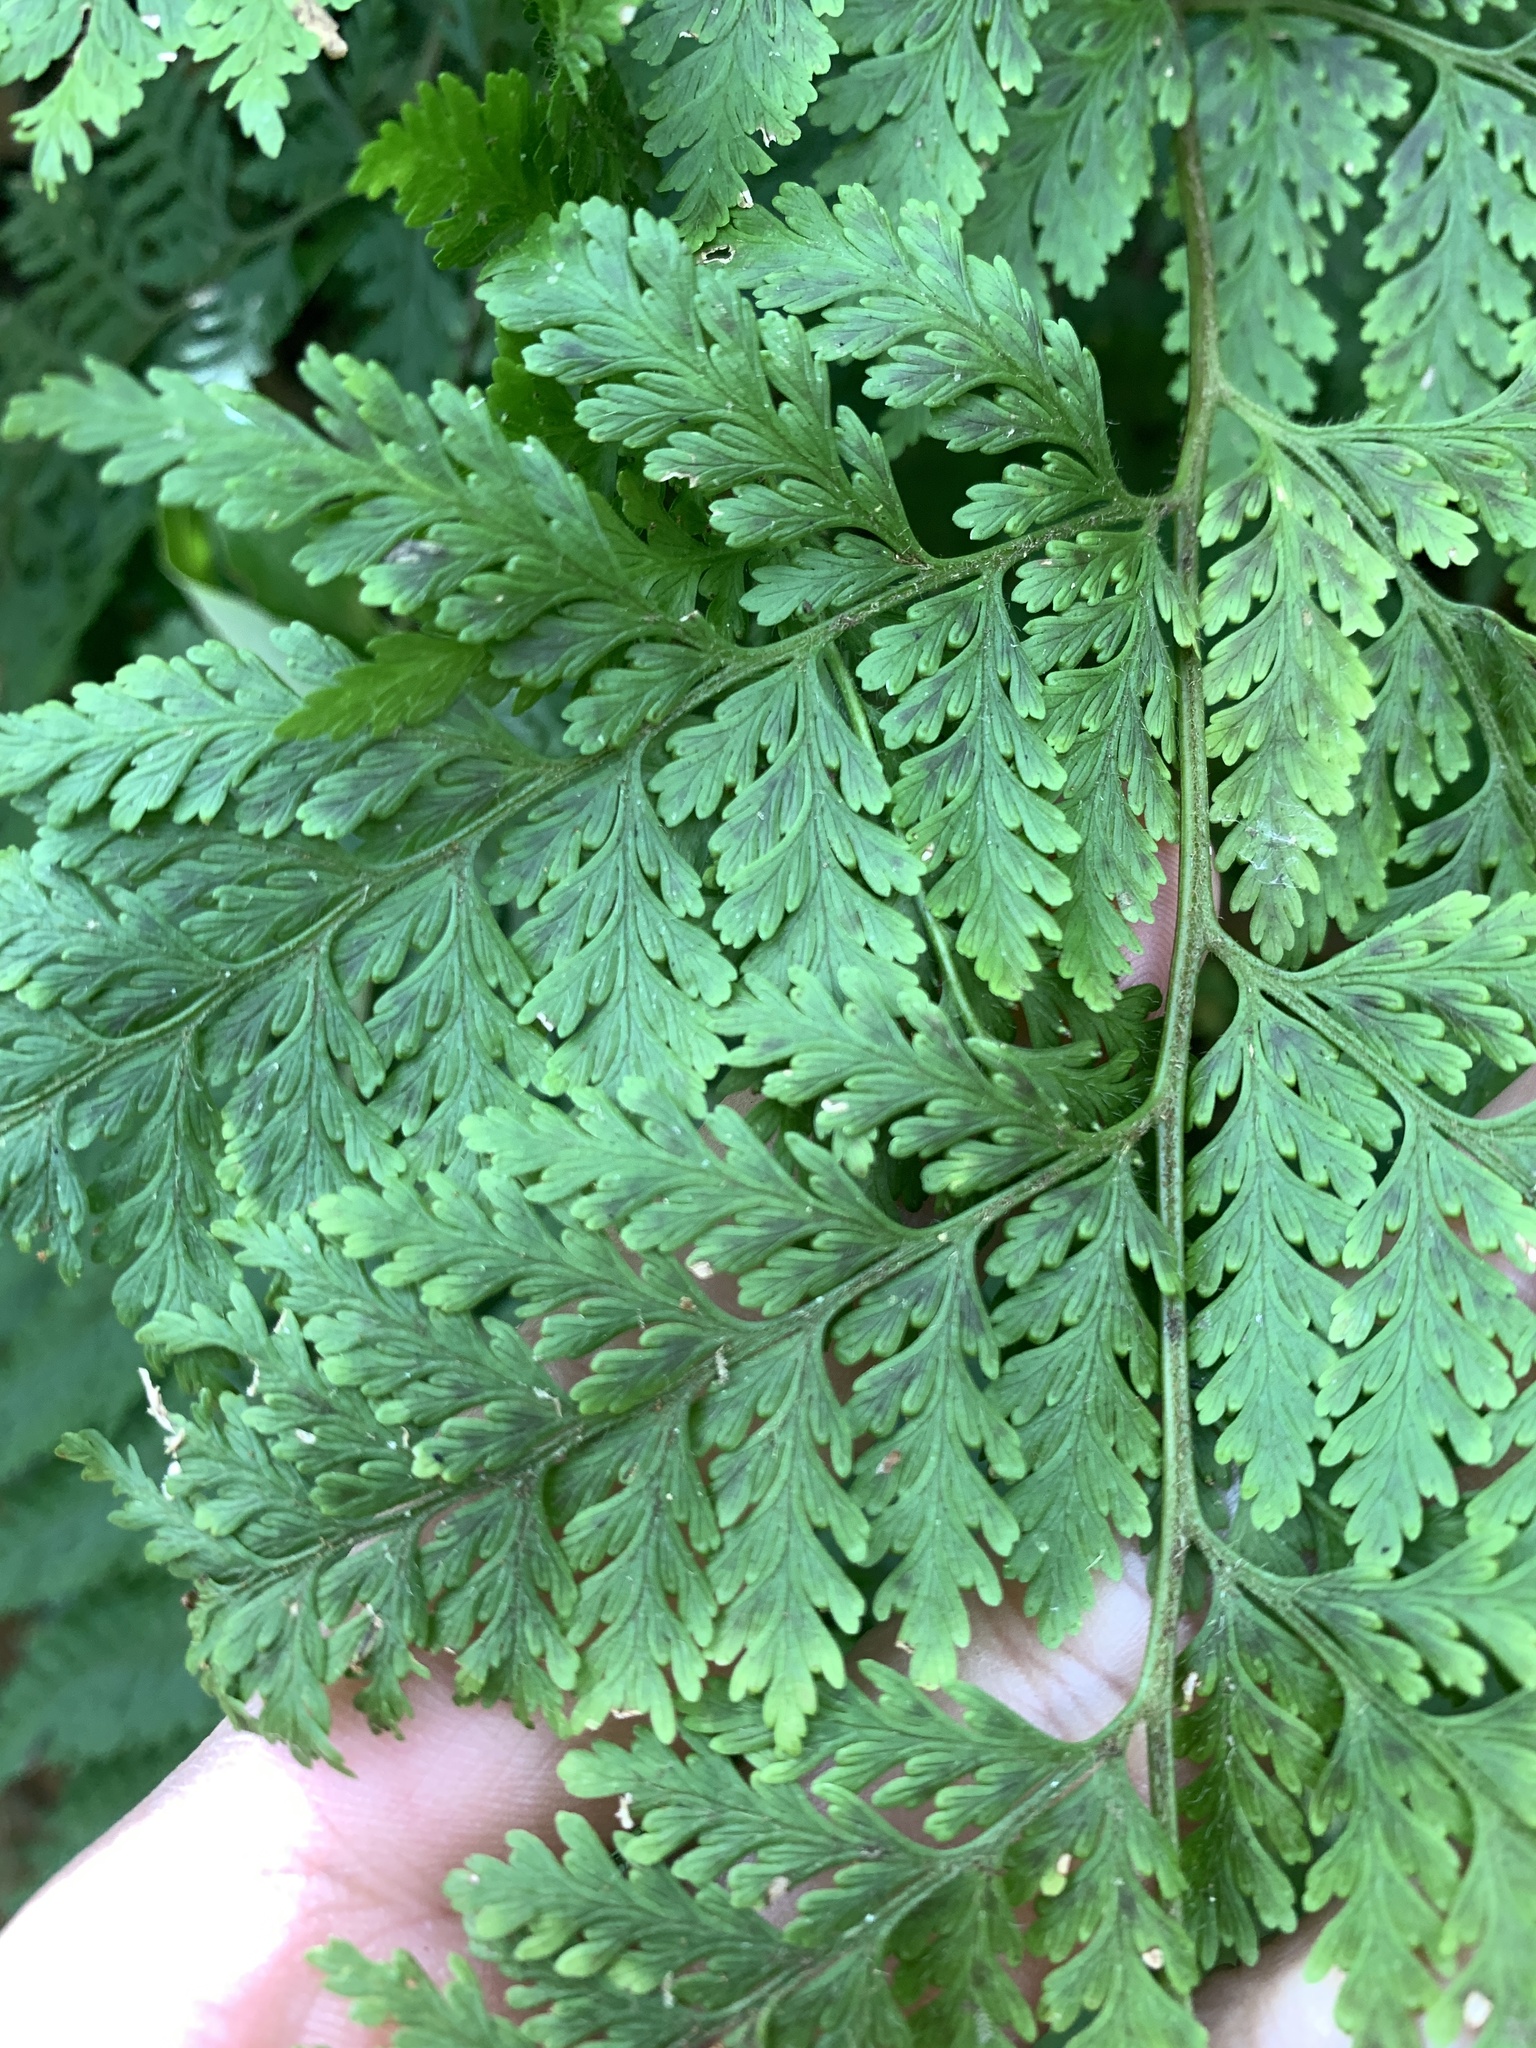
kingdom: Plantae
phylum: Tracheophyta
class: Polypodiopsida
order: Polypodiales
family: Dennstaedtiaceae
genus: Sitobolium
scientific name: Sitobolium zeylanicum
